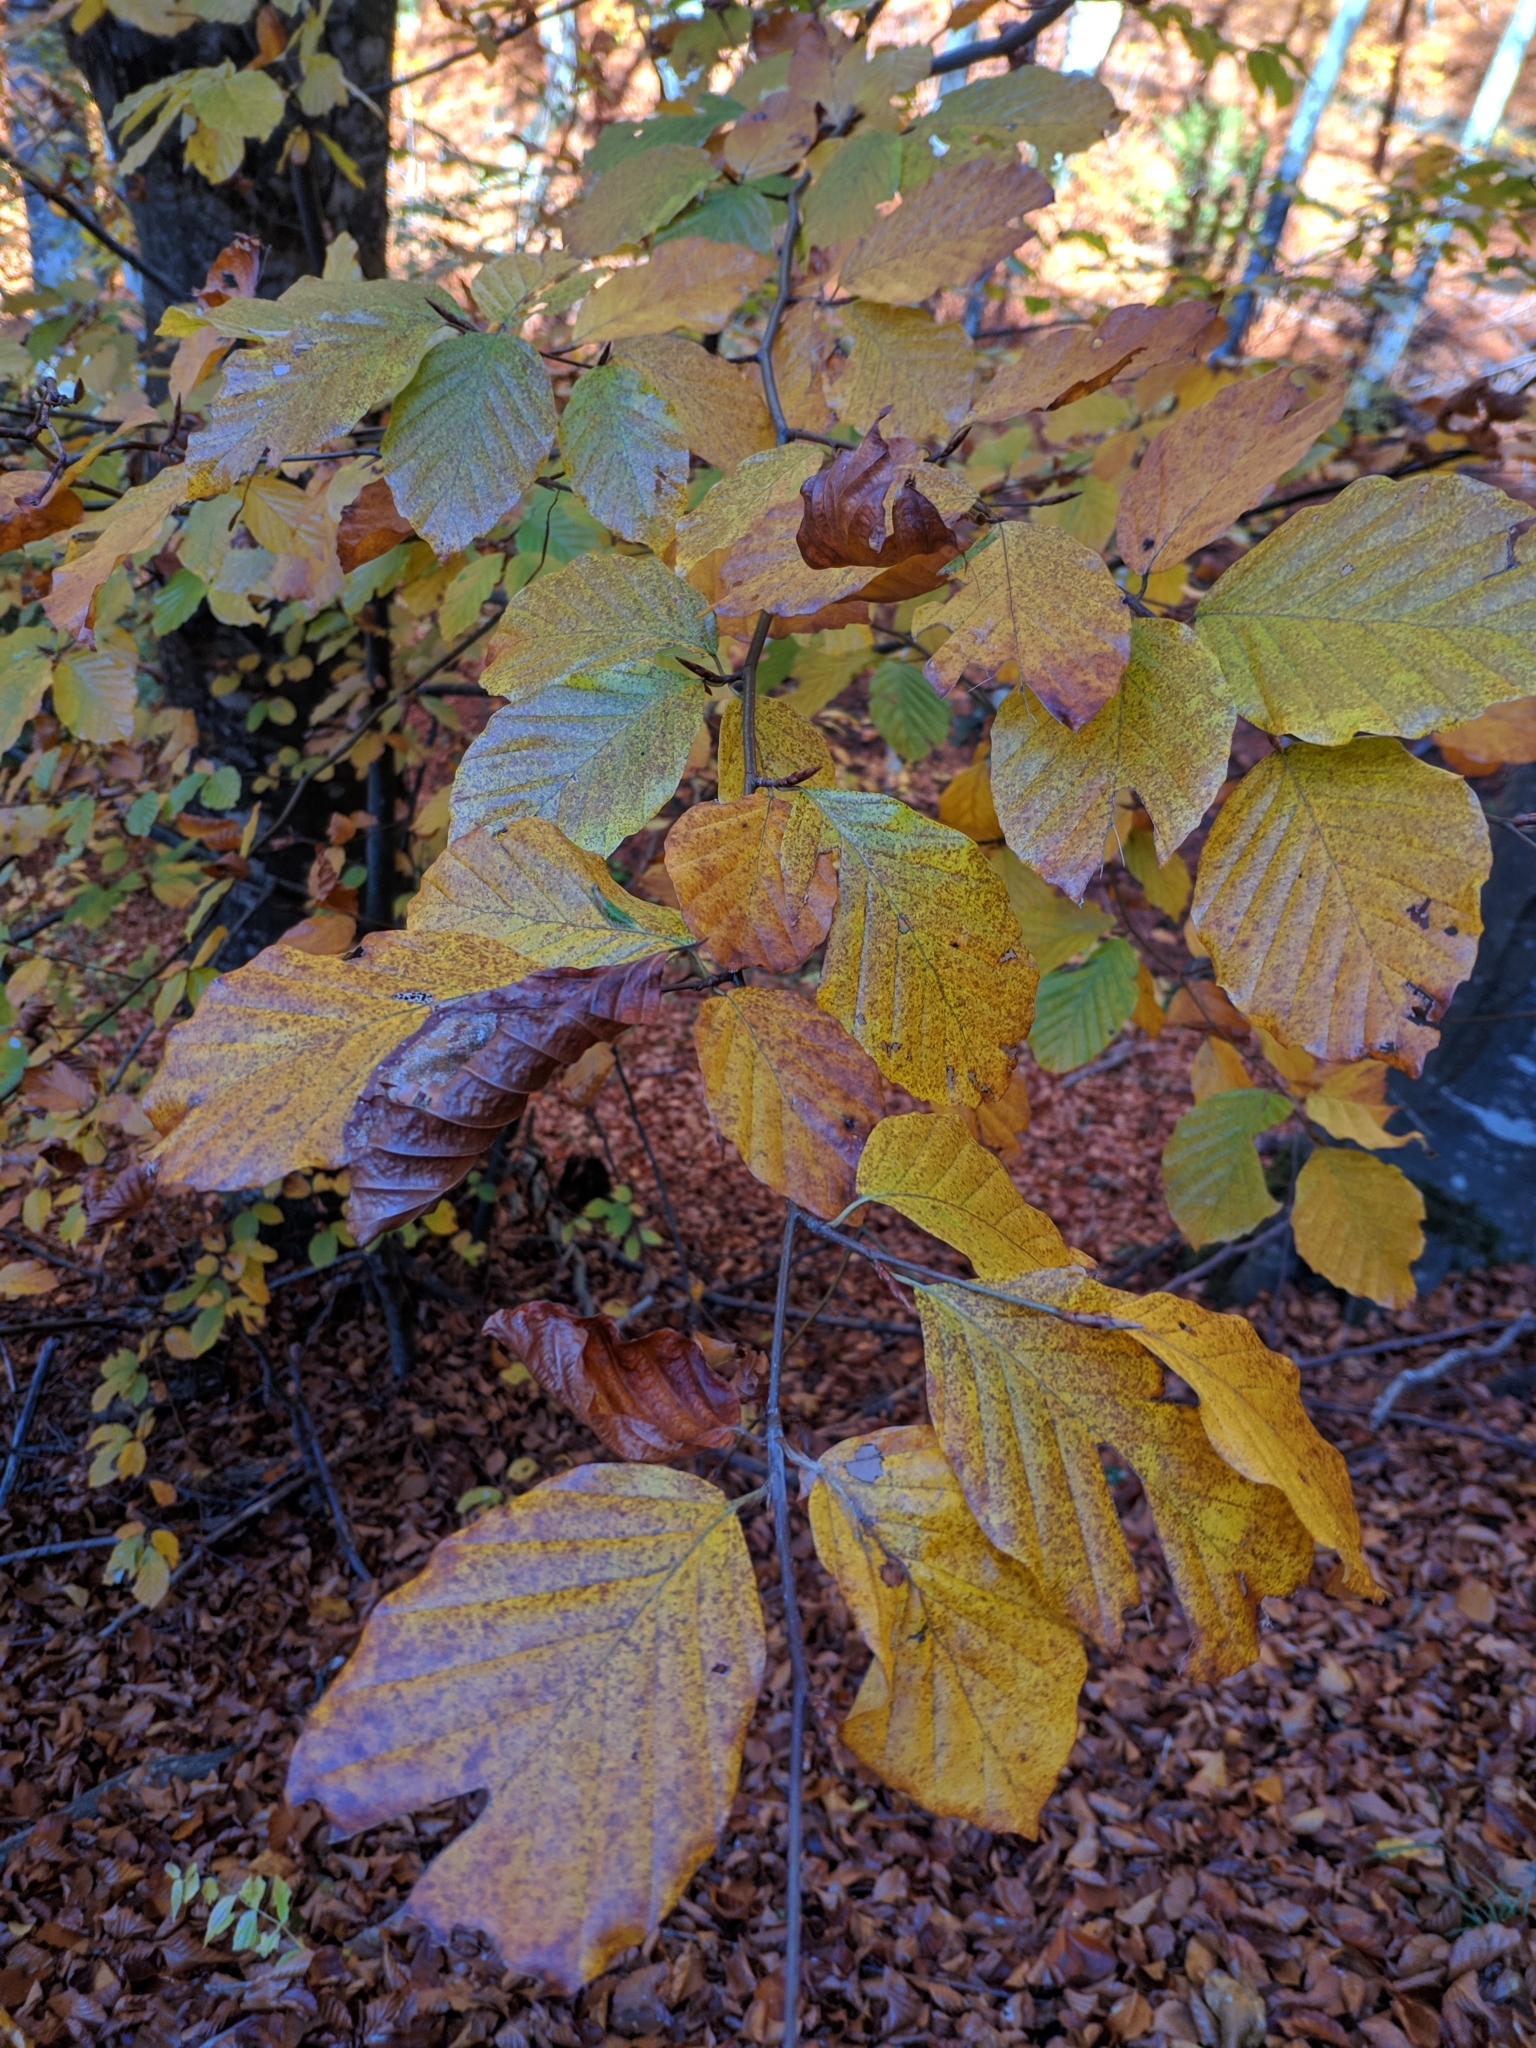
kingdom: Plantae
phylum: Tracheophyta
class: Magnoliopsida
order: Fagales
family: Fagaceae
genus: Fagus
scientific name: Fagus sylvatica
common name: Beech
